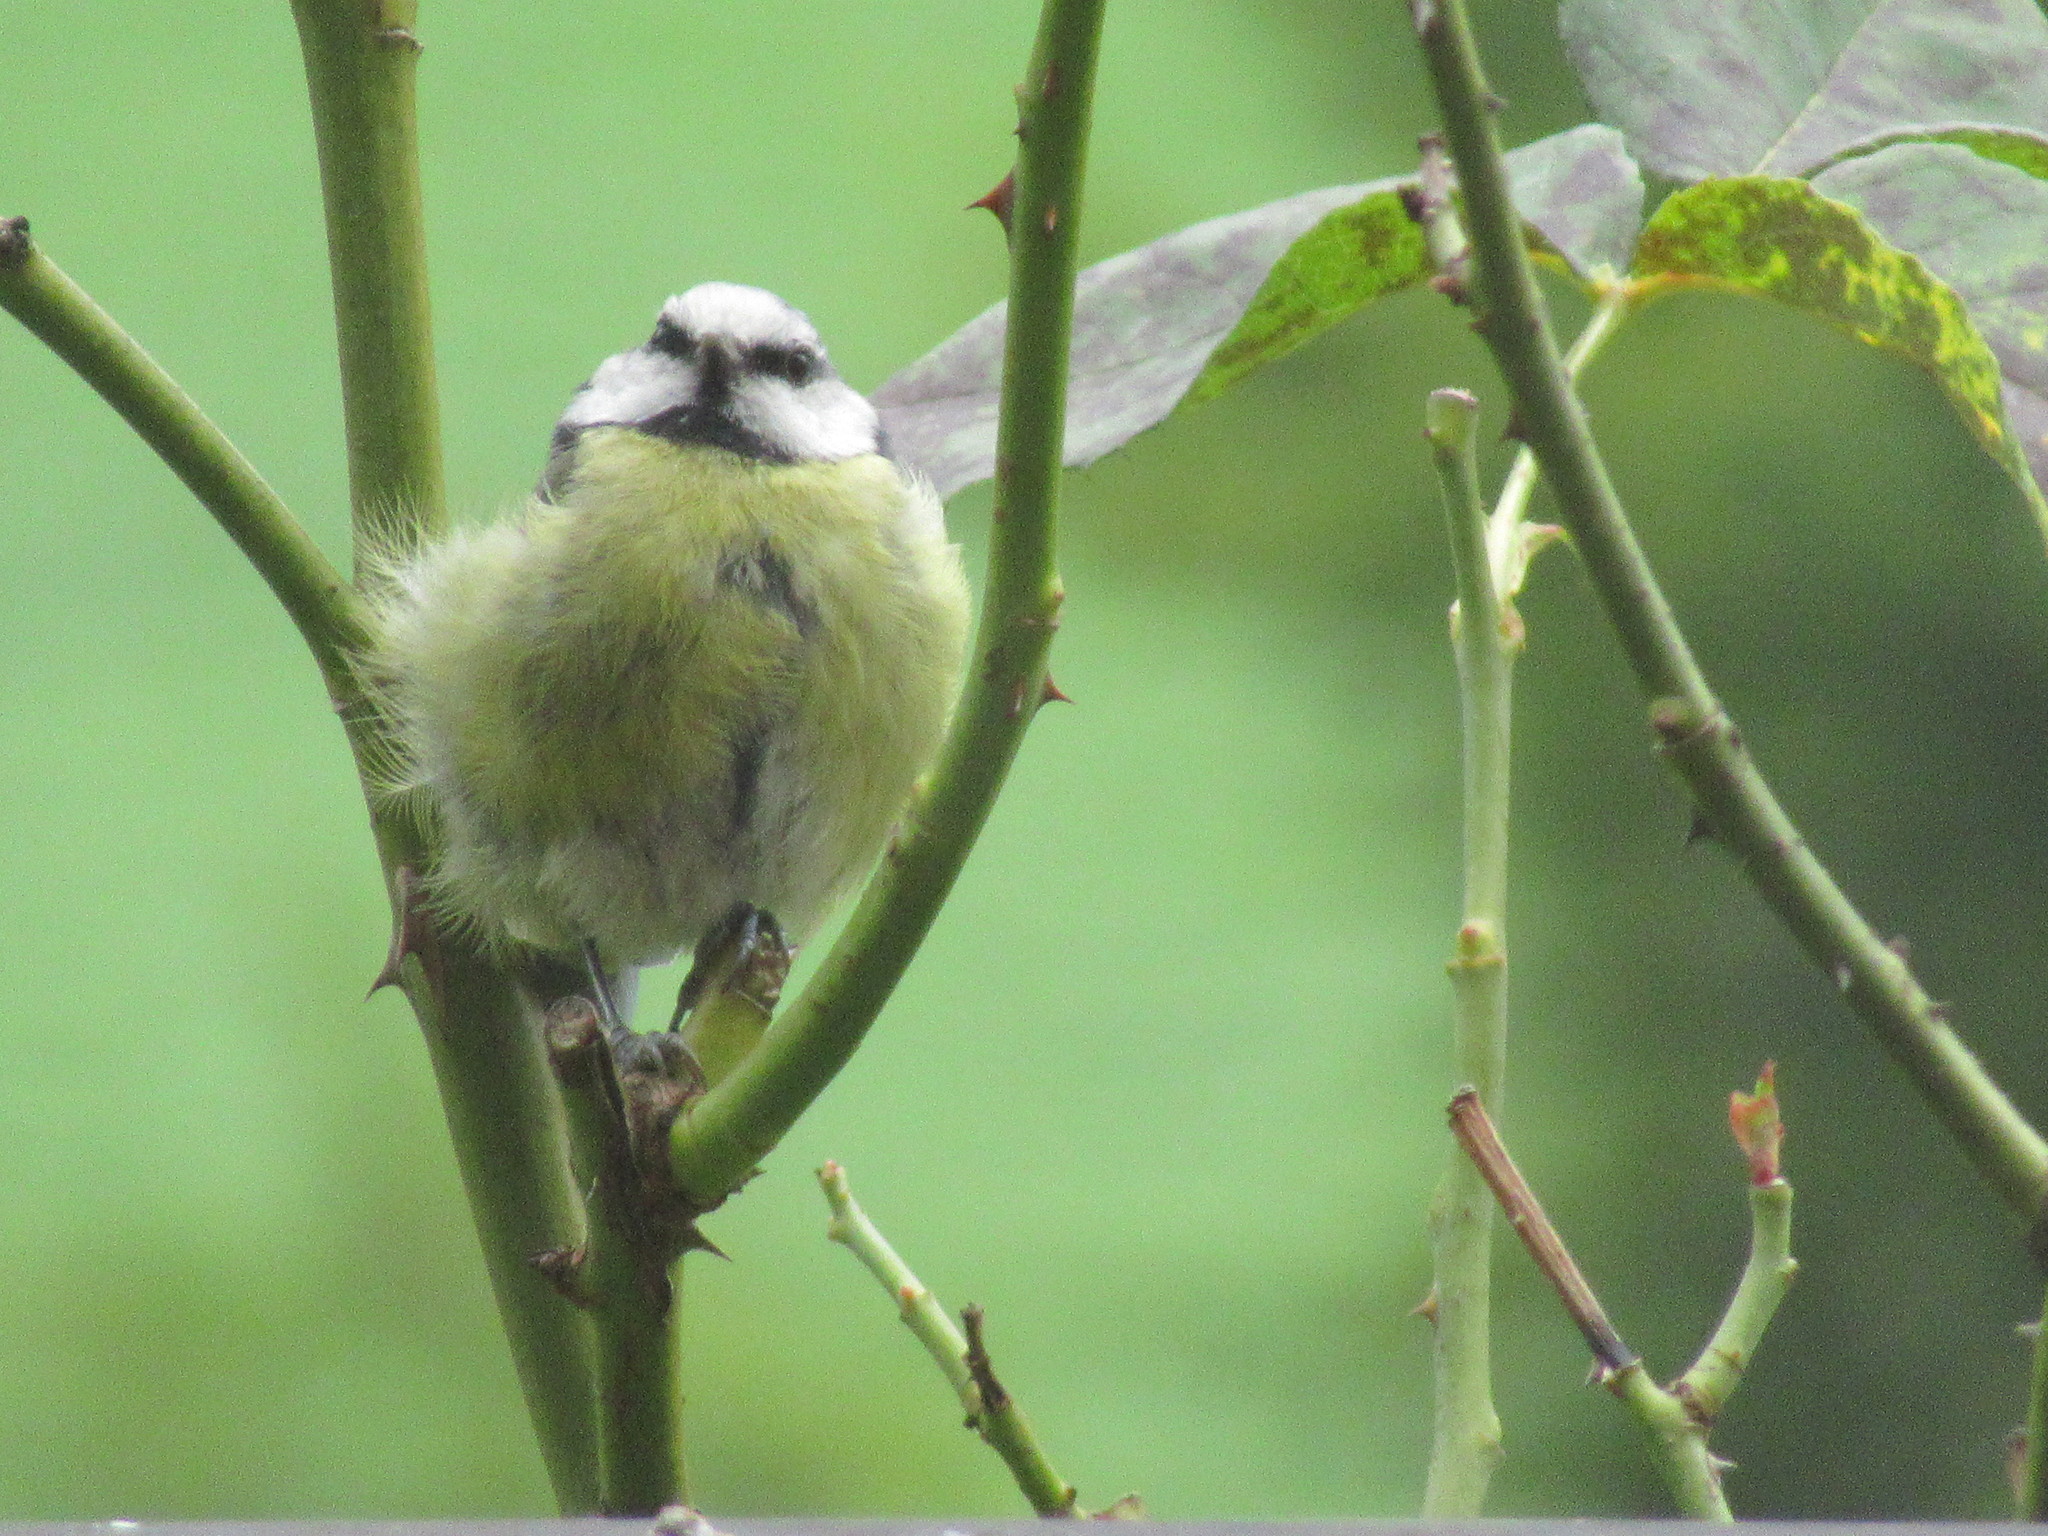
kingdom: Animalia
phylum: Chordata
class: Aves
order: Passeriformes
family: Paridae
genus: Cyanistes
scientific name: Cyanistes caeruleus
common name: Eurasian blue tit
